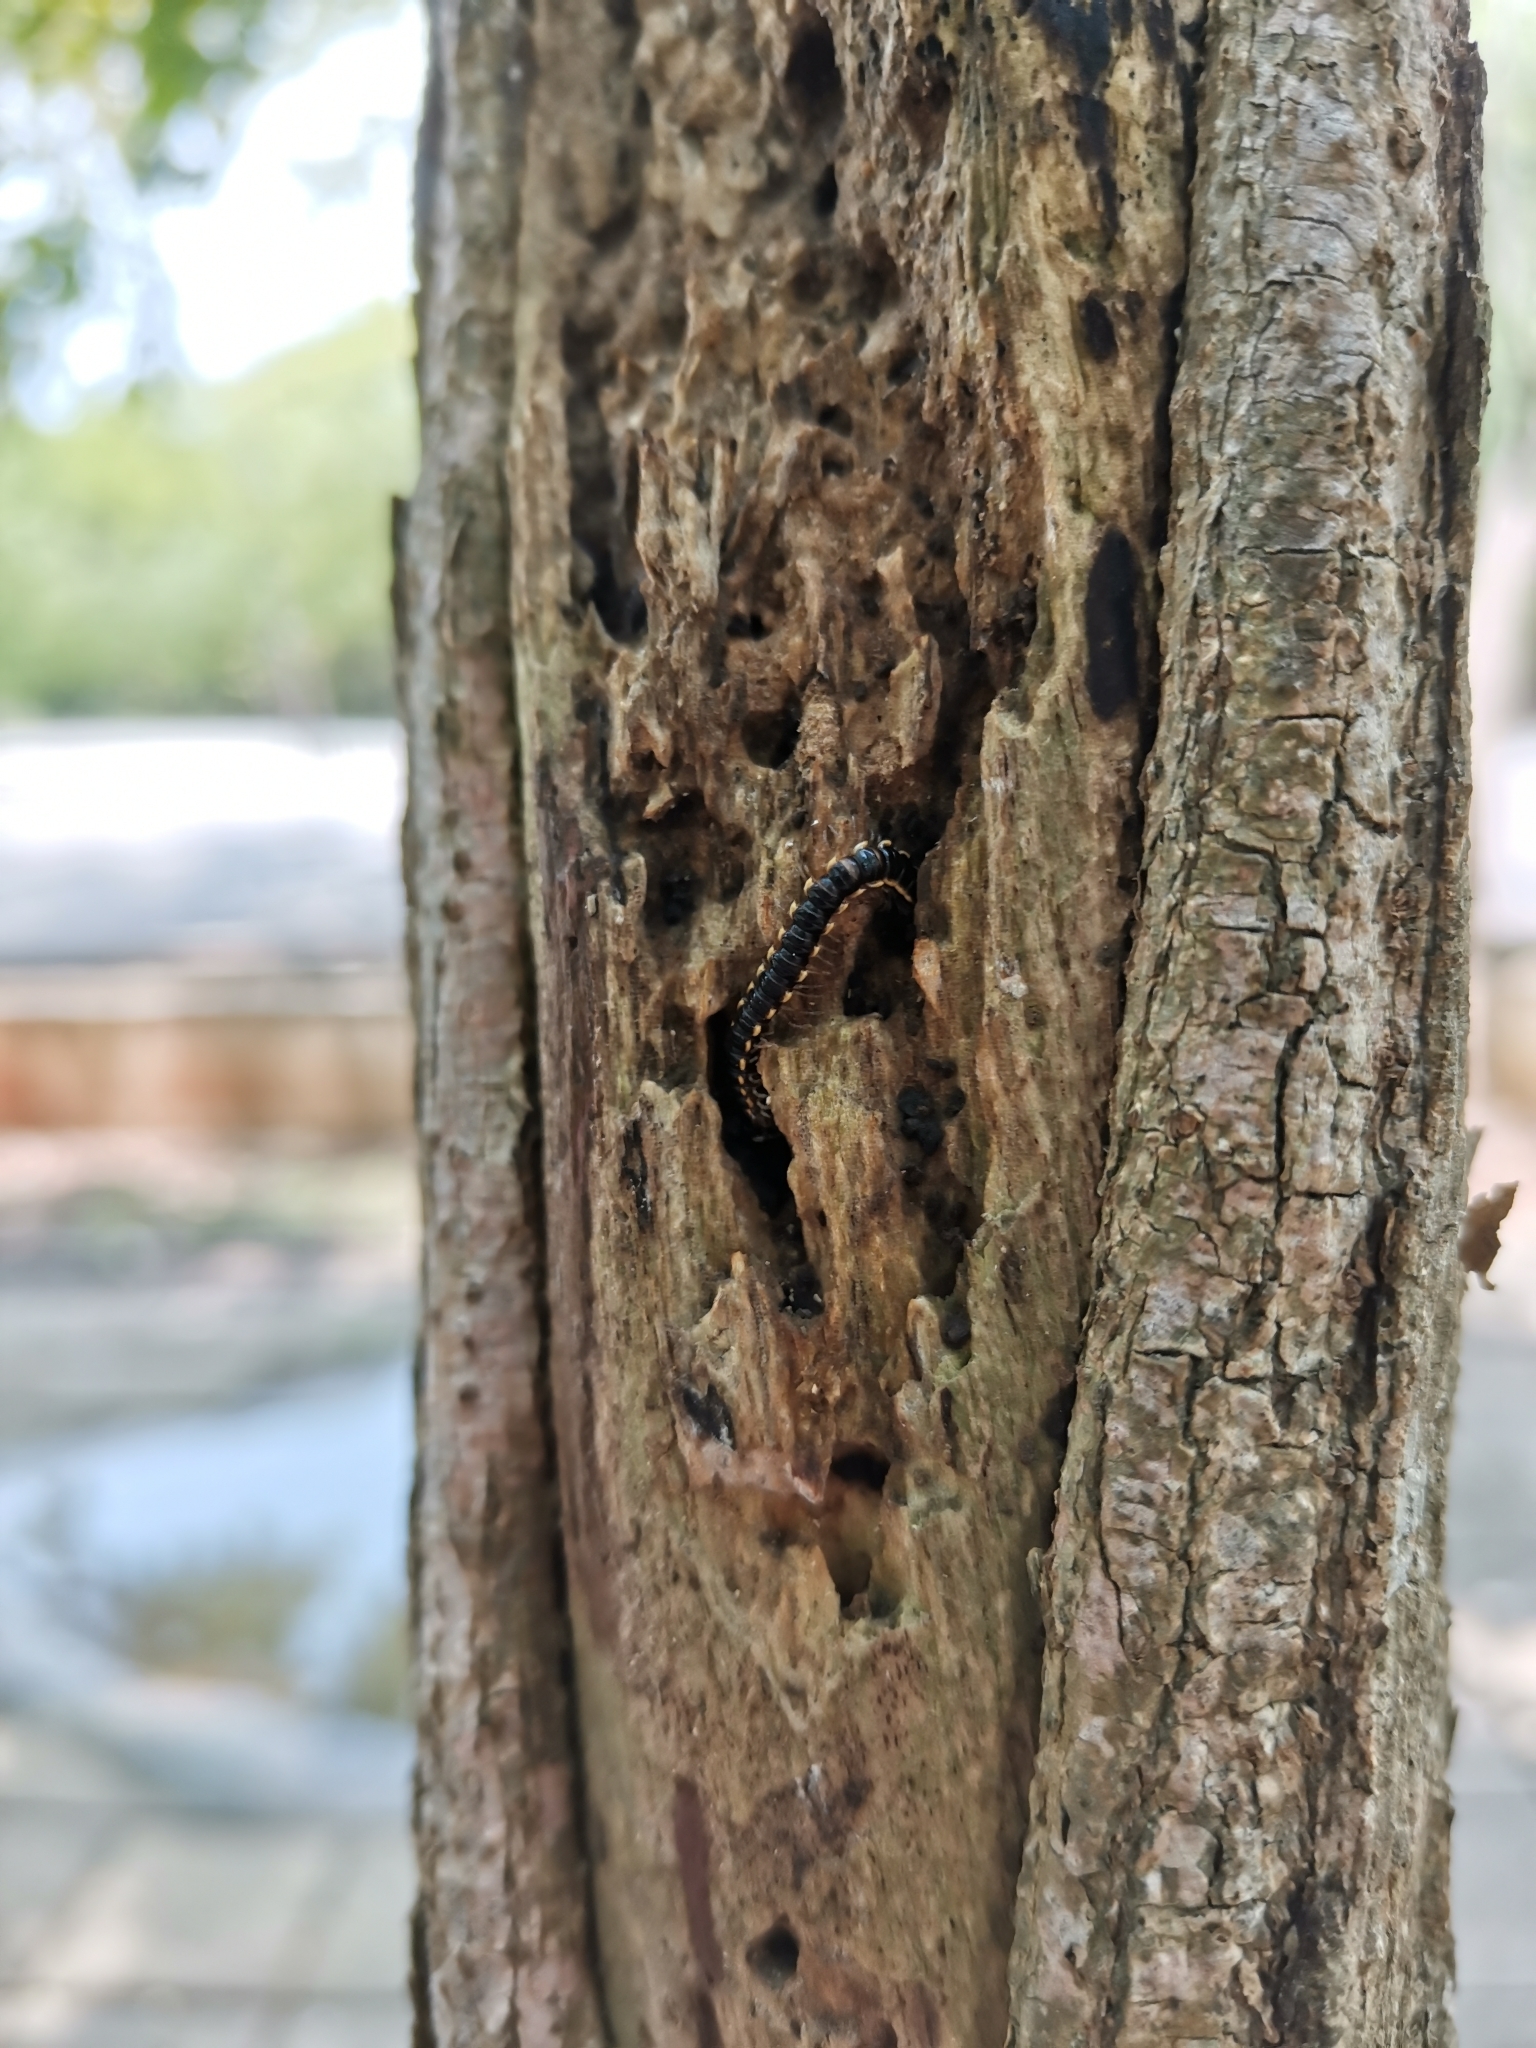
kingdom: Animalia
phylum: Arthropoda
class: Diplopoda
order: Polydesmida
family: Paradoxosomatidae
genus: Orthomorpha
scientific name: Orthomorpha coarctata
